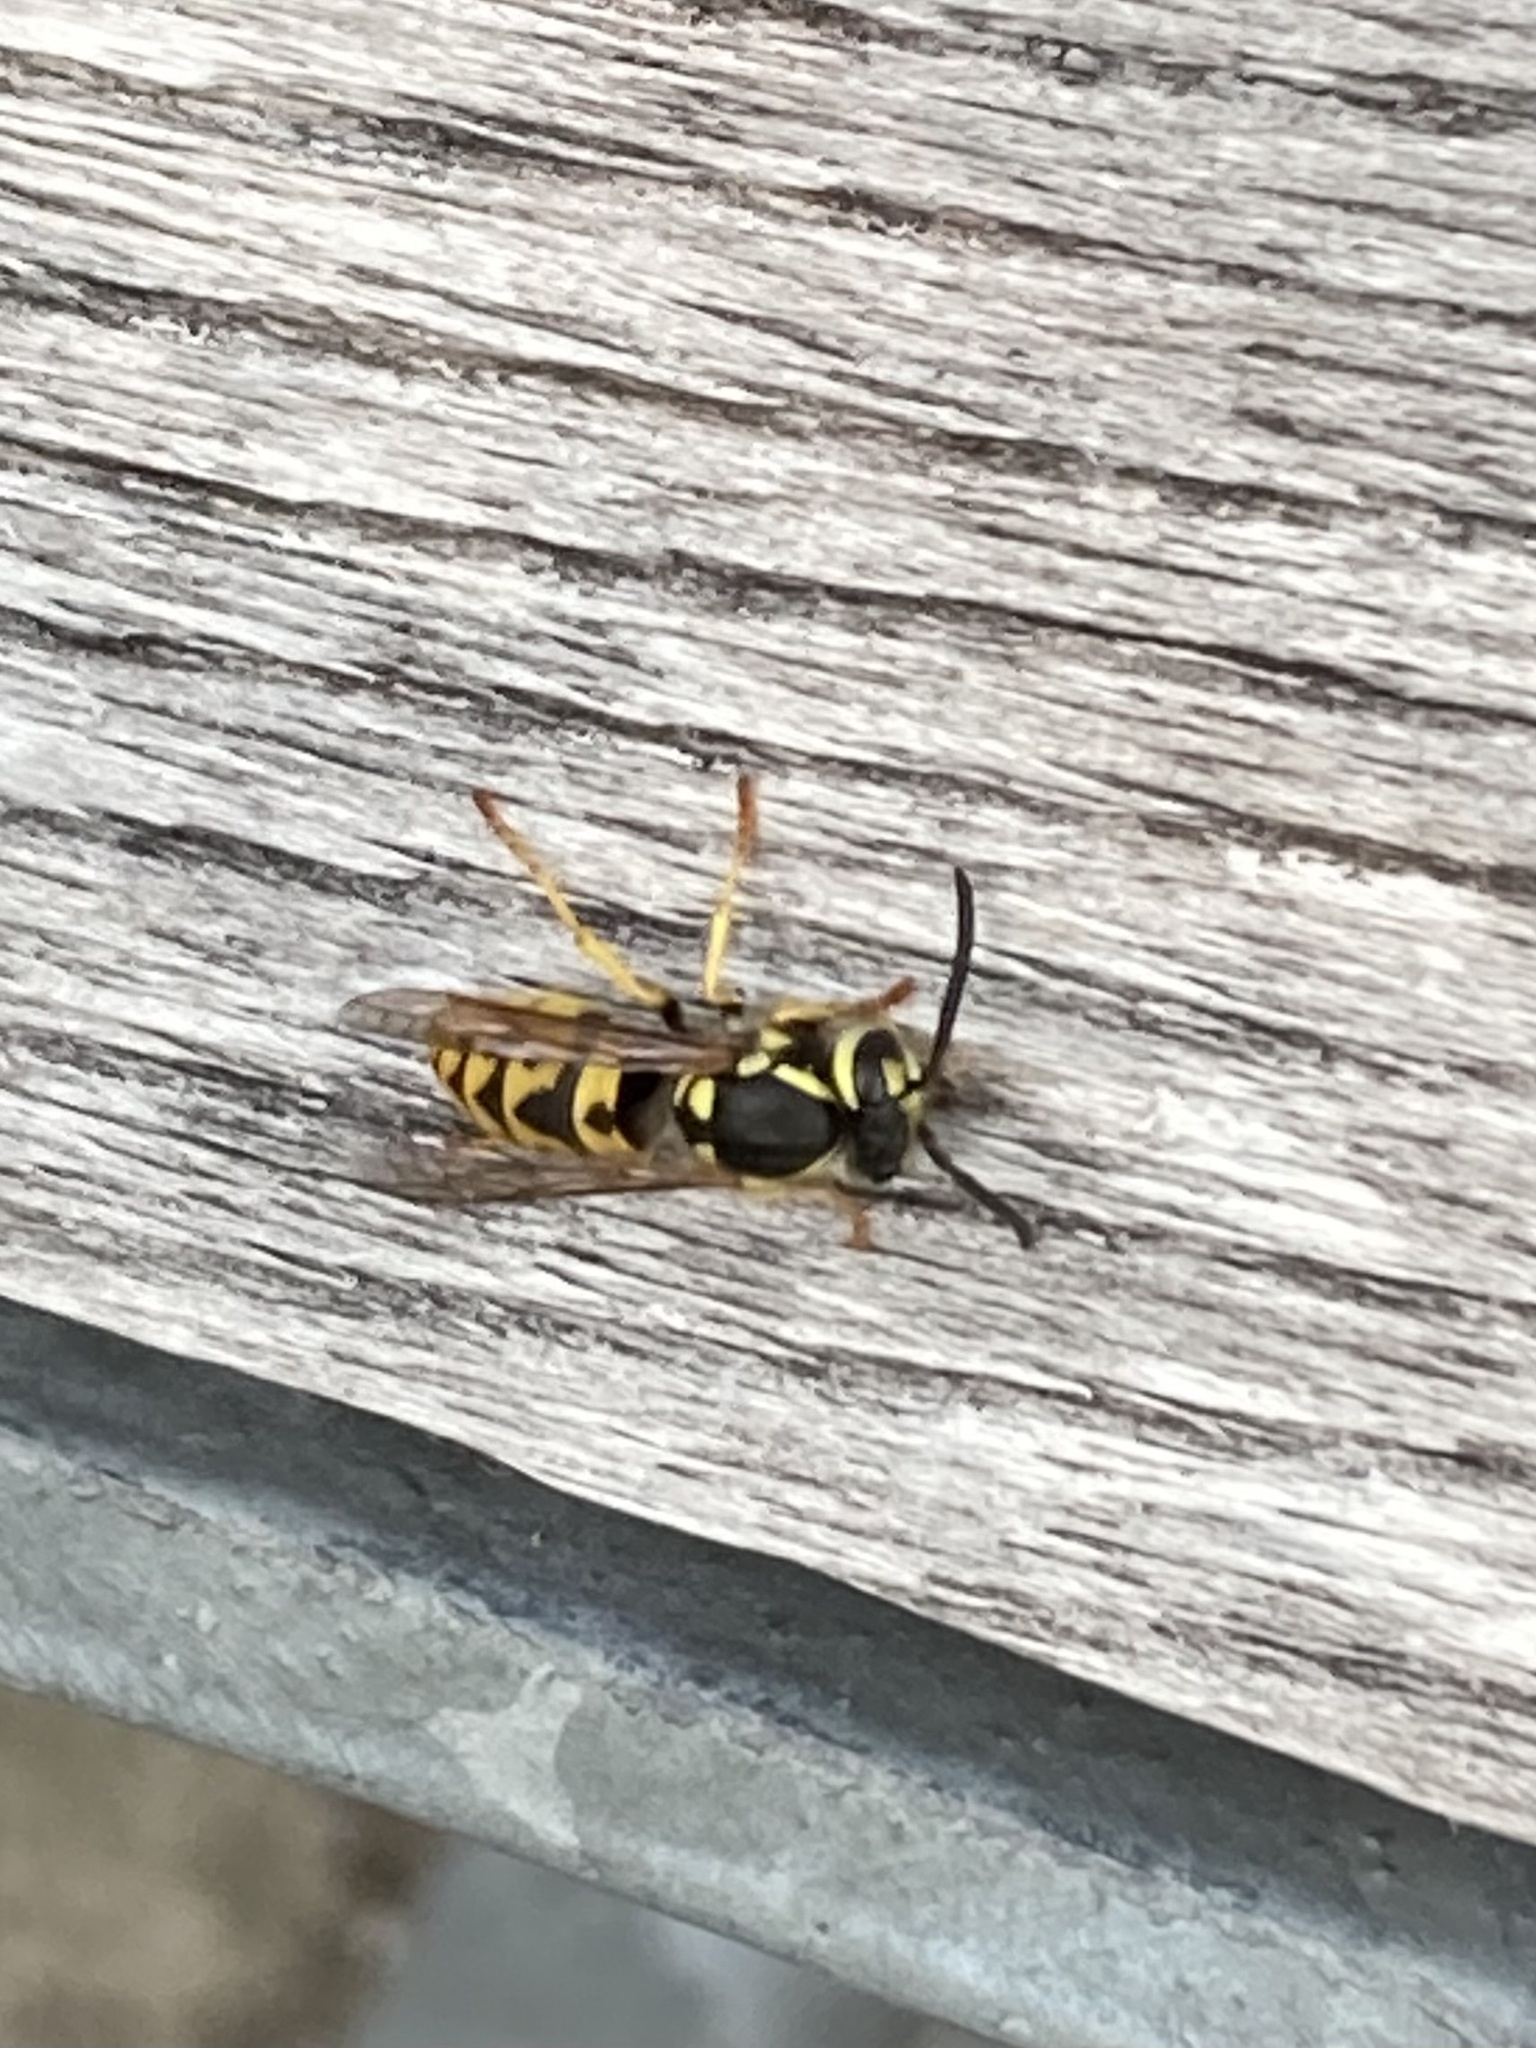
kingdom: Animalia
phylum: Arthropoda
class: Insecta
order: Hymenoptera
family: Vespidae
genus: Vespula
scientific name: Vespula germanica
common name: German wasp
